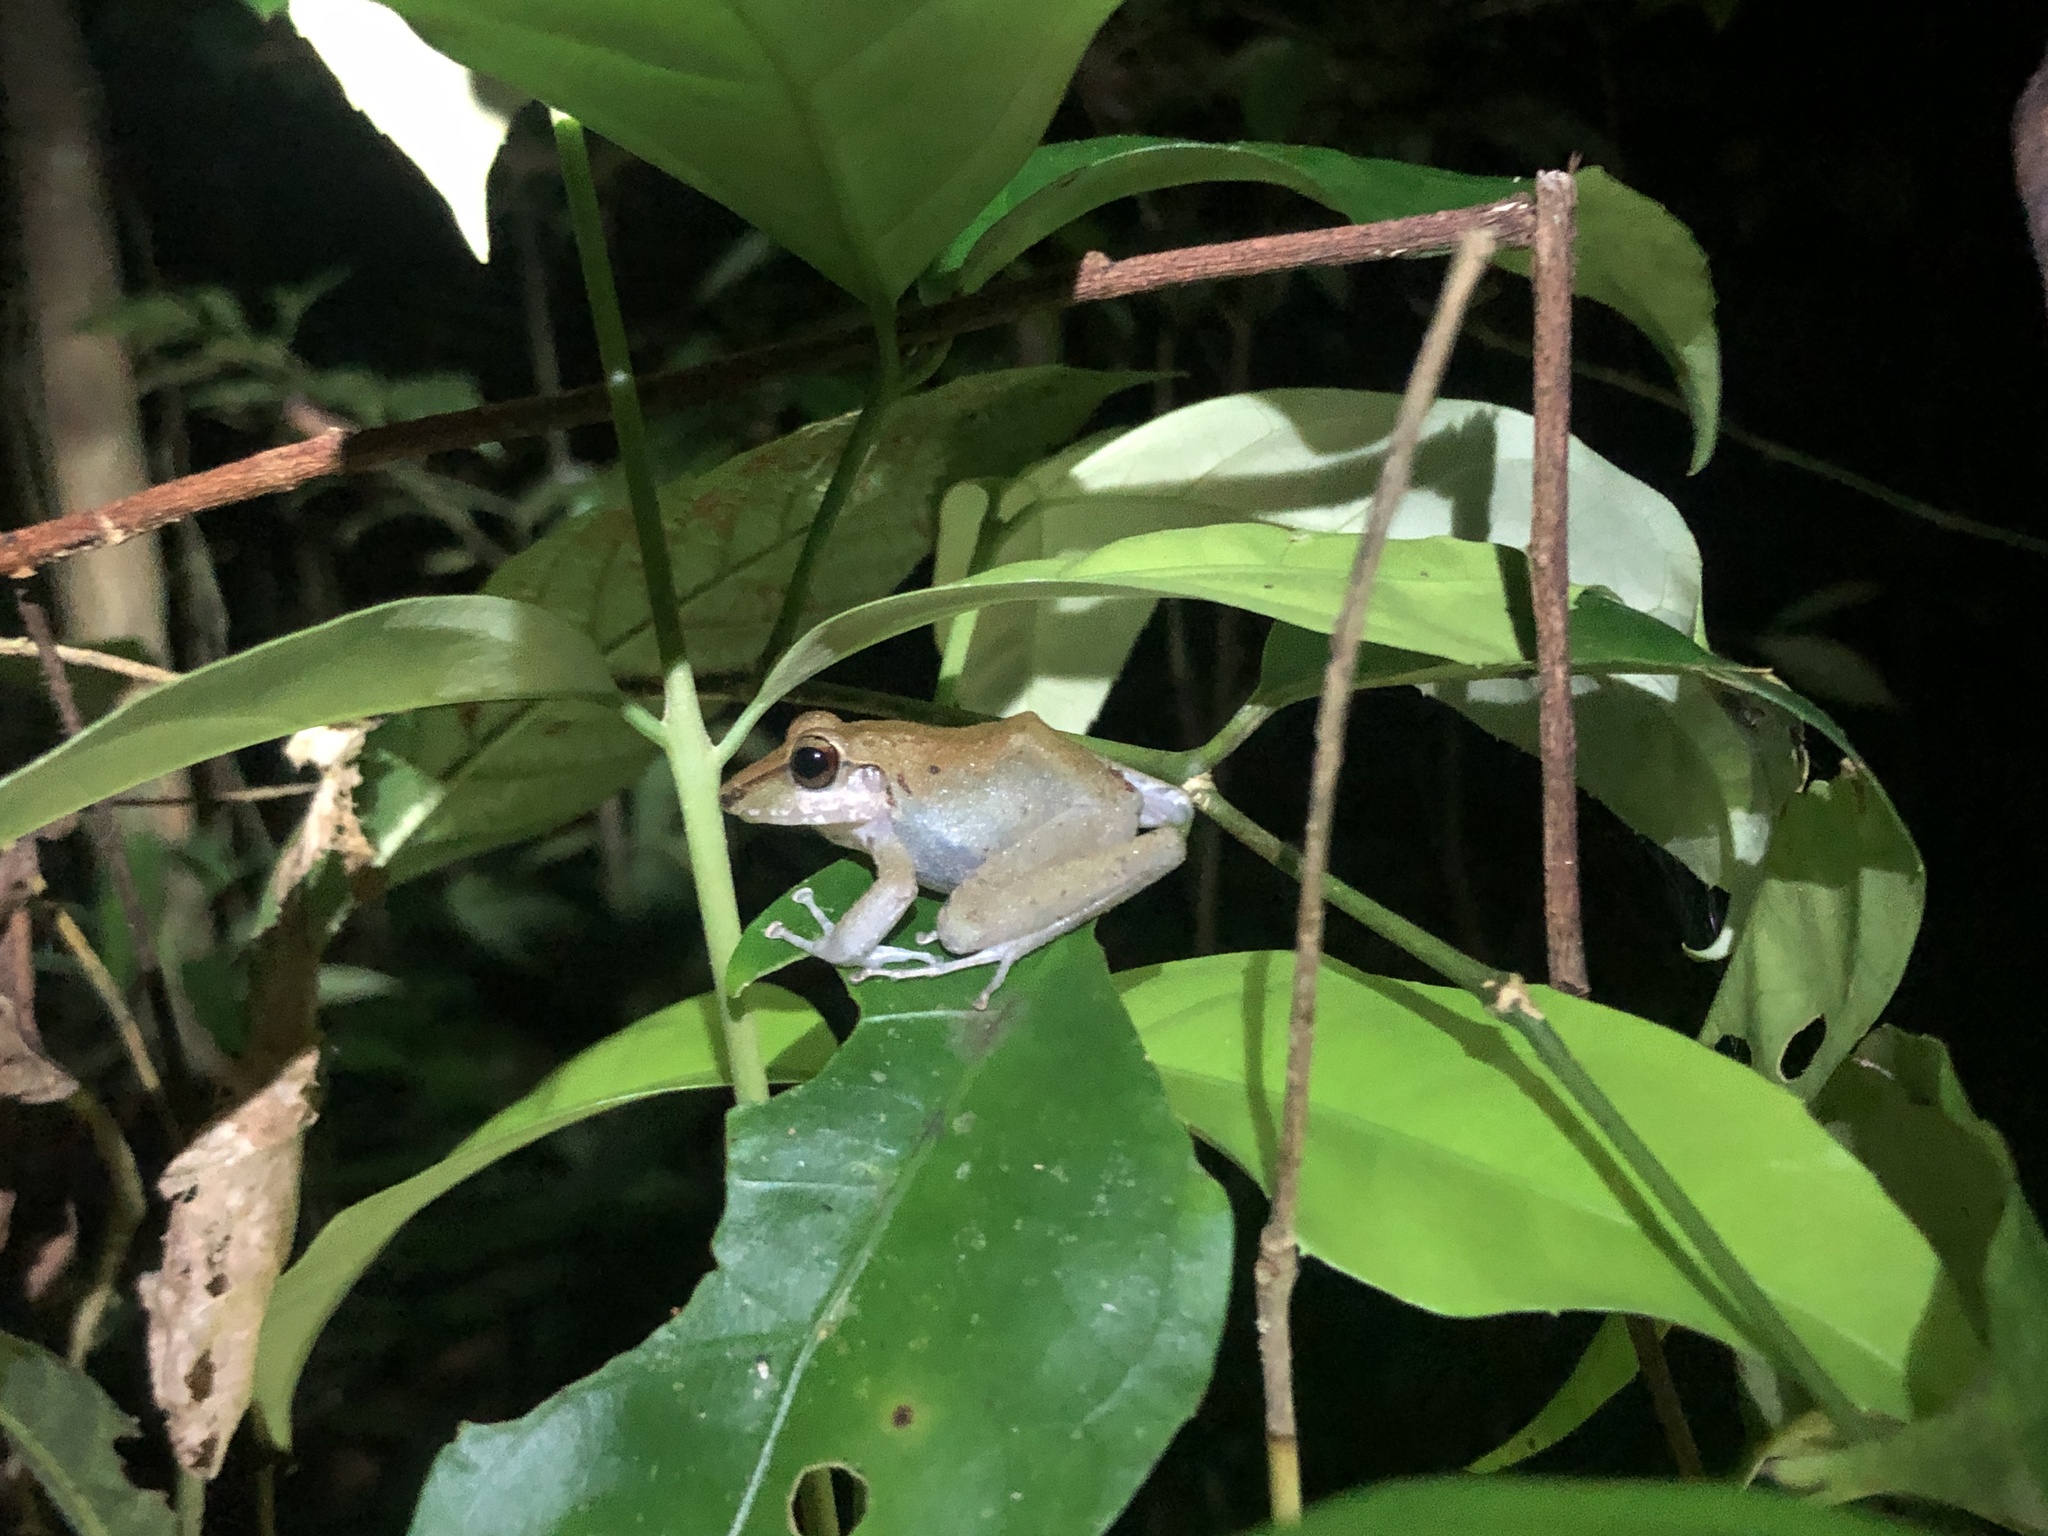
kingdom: Animalia
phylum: Chordata
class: Amphibia
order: Anura
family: Craugastoridae
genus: Craugastor
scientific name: Craugastor crassidigitus
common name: Isla bonita robber frog
